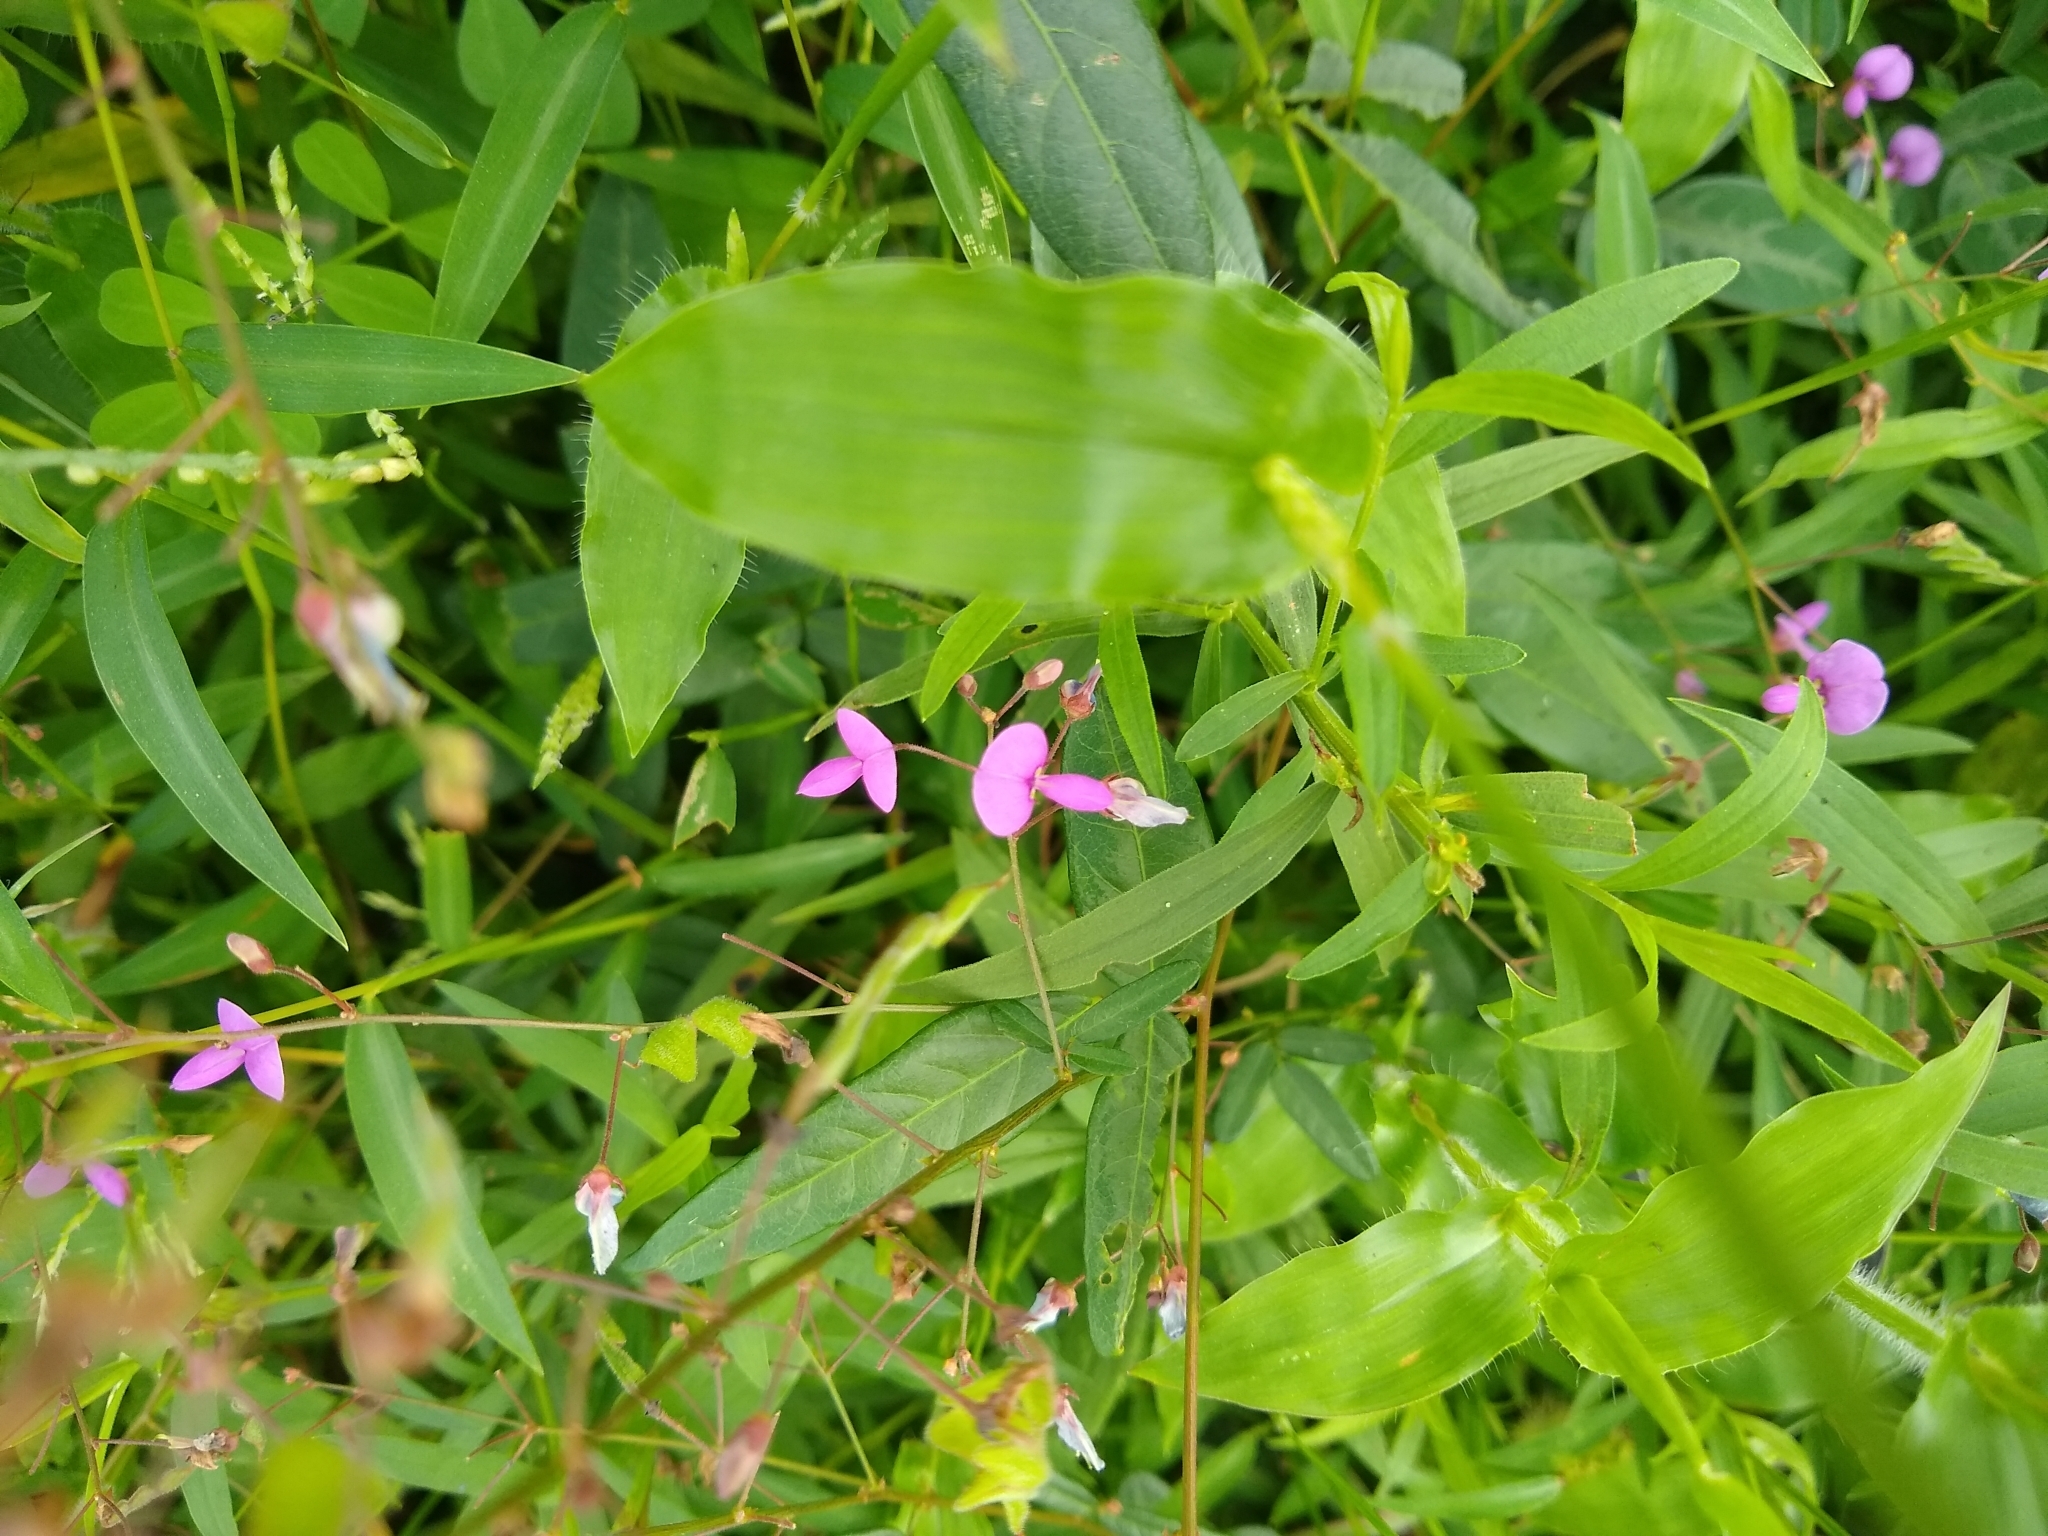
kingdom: Plantae
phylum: Tracheophyta
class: Magnoliopsida
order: Fabales
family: Fabaceae
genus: Desmodium
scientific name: Desmodium paniculatum
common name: Panicled tick-clover
